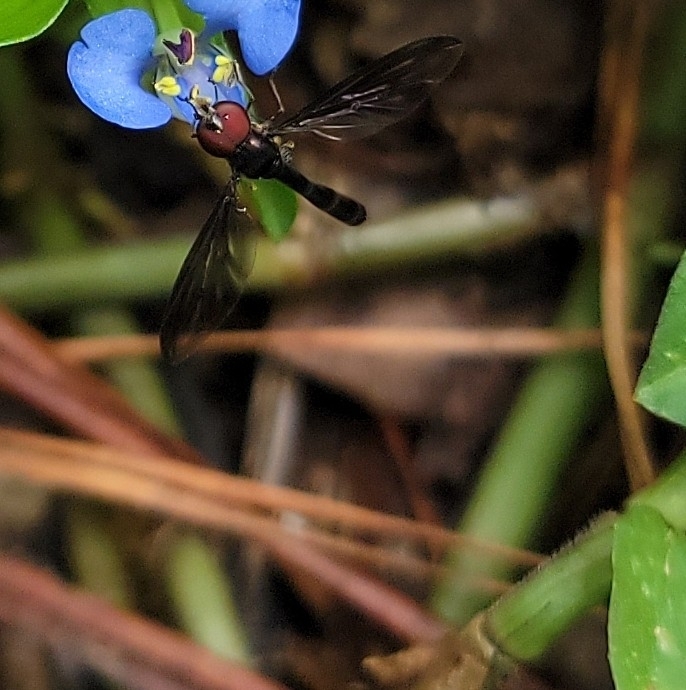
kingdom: Animalia
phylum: Arthropoda
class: Insecta
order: Diptera
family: Syrphidae
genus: Ocyptamus
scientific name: Ocyptamus fuscipennis
